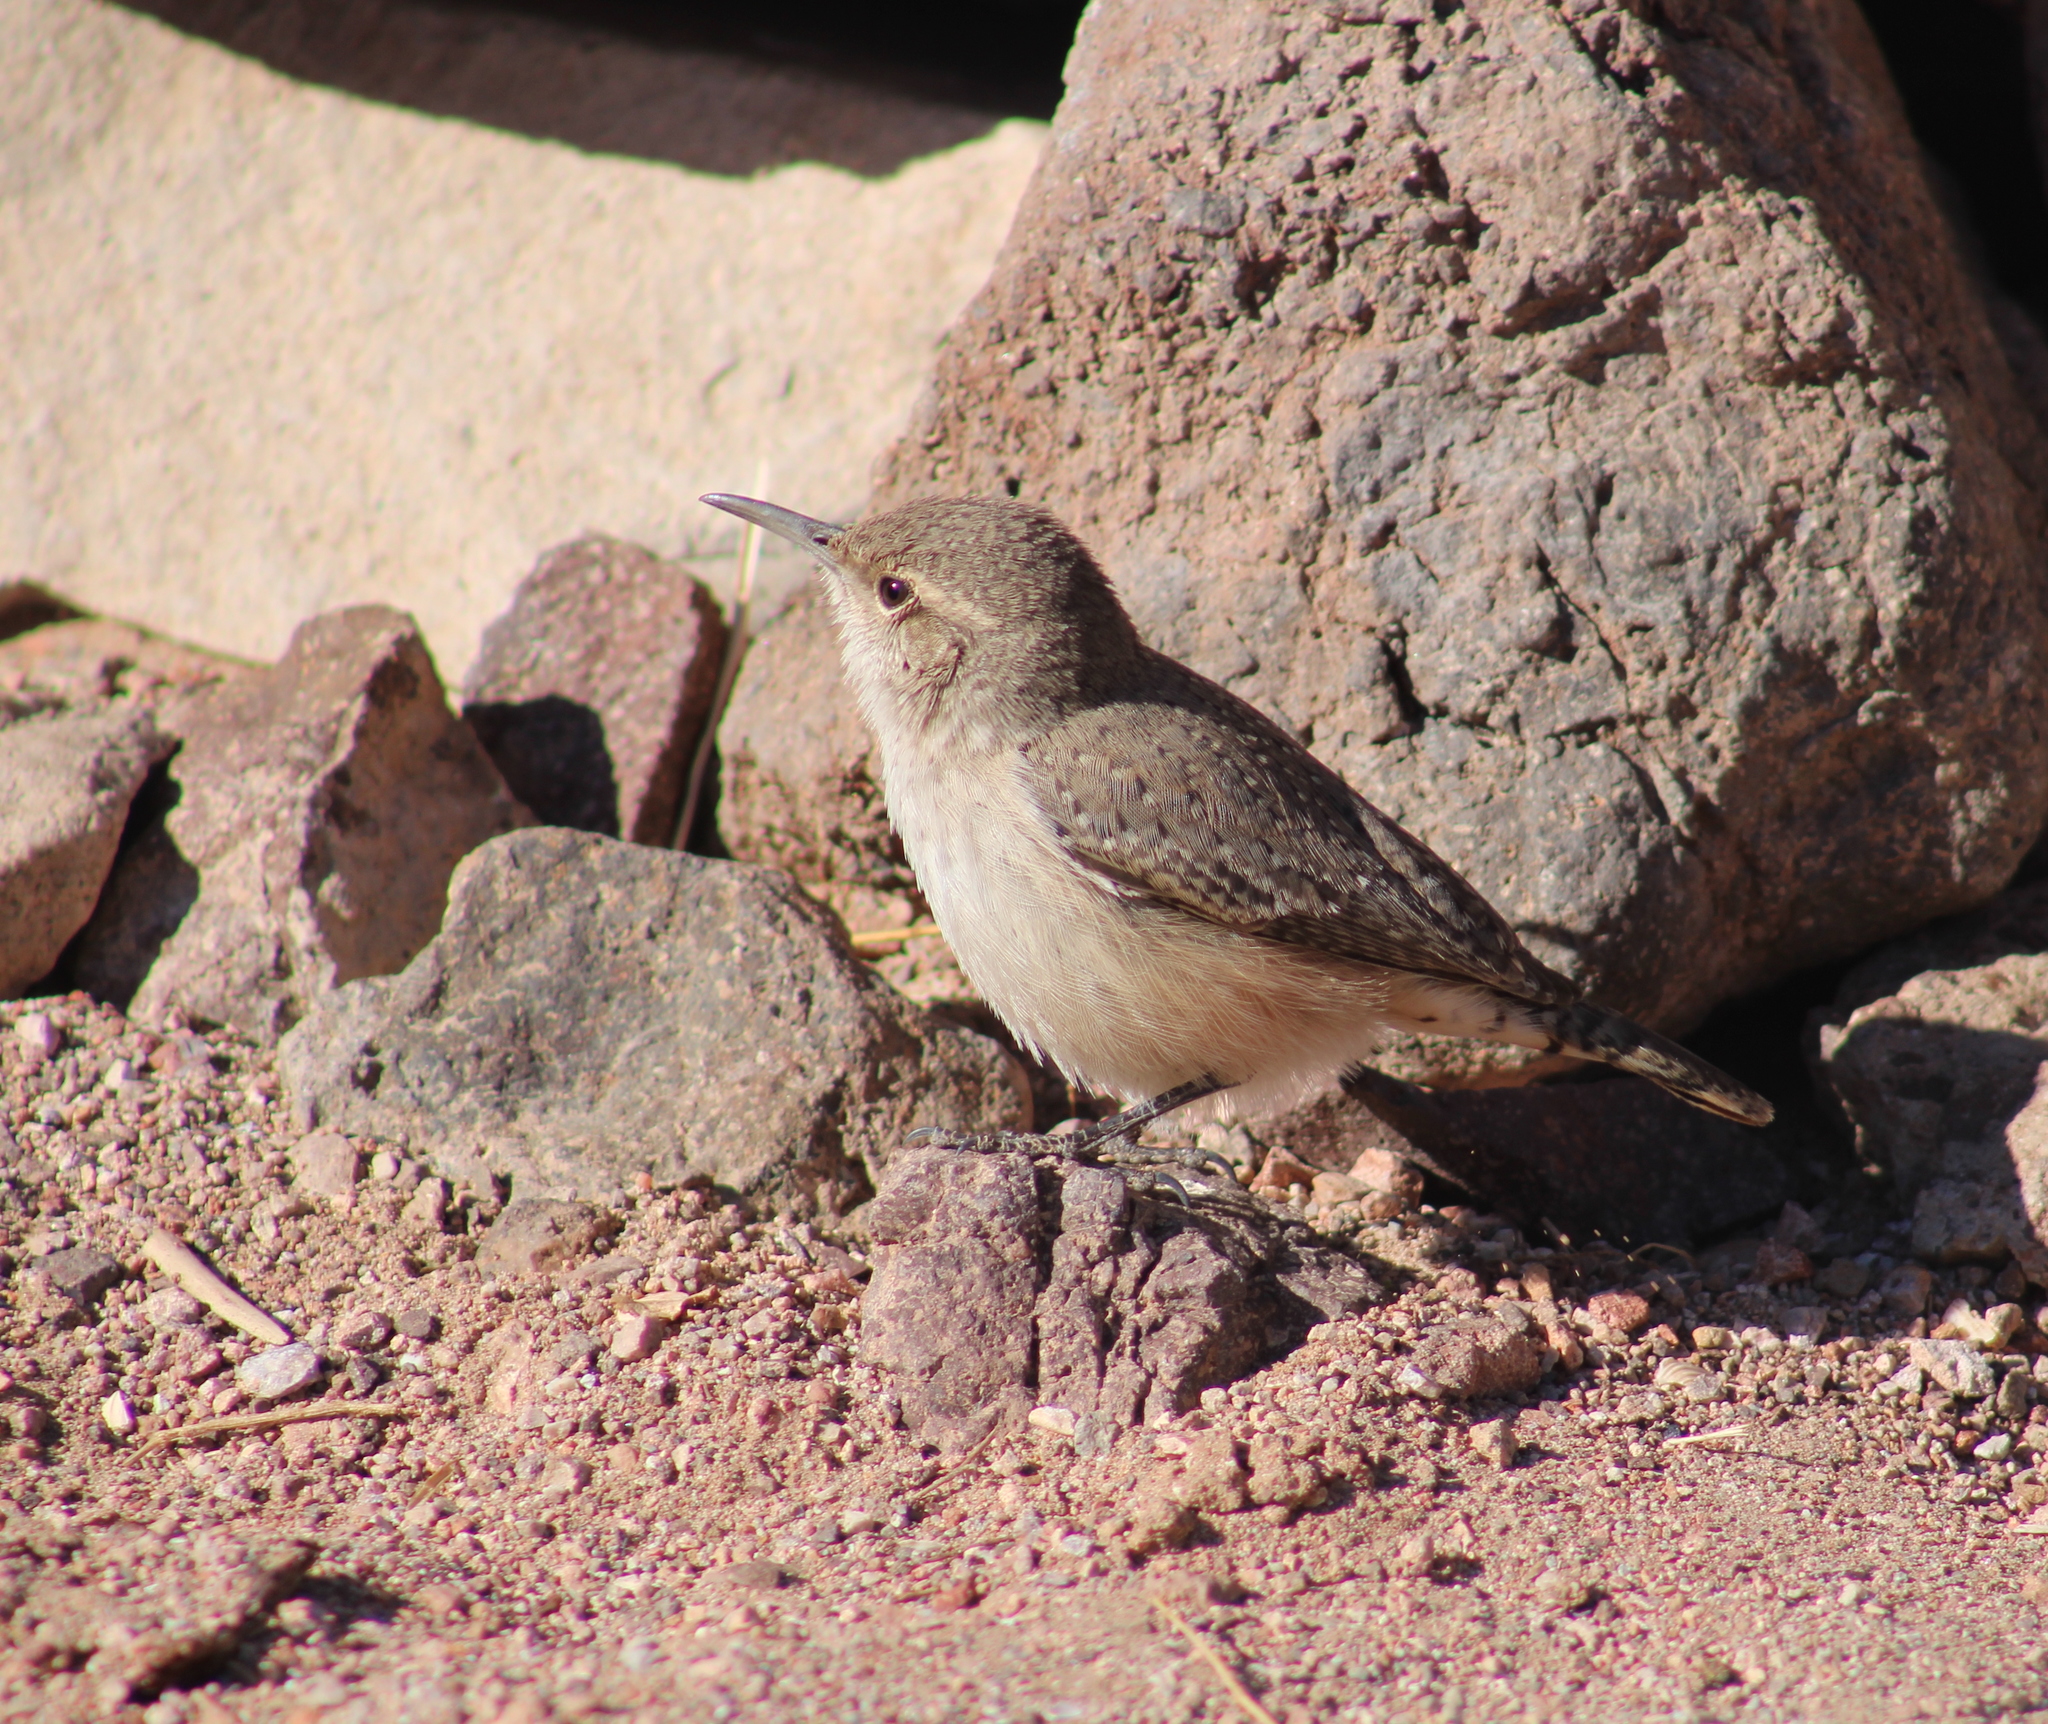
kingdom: Animalia
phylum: Chordata
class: Aves
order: Passeriformes
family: Troglodytidae
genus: Salpinctes
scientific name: Salpinctes obsoletus
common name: Rock wren
